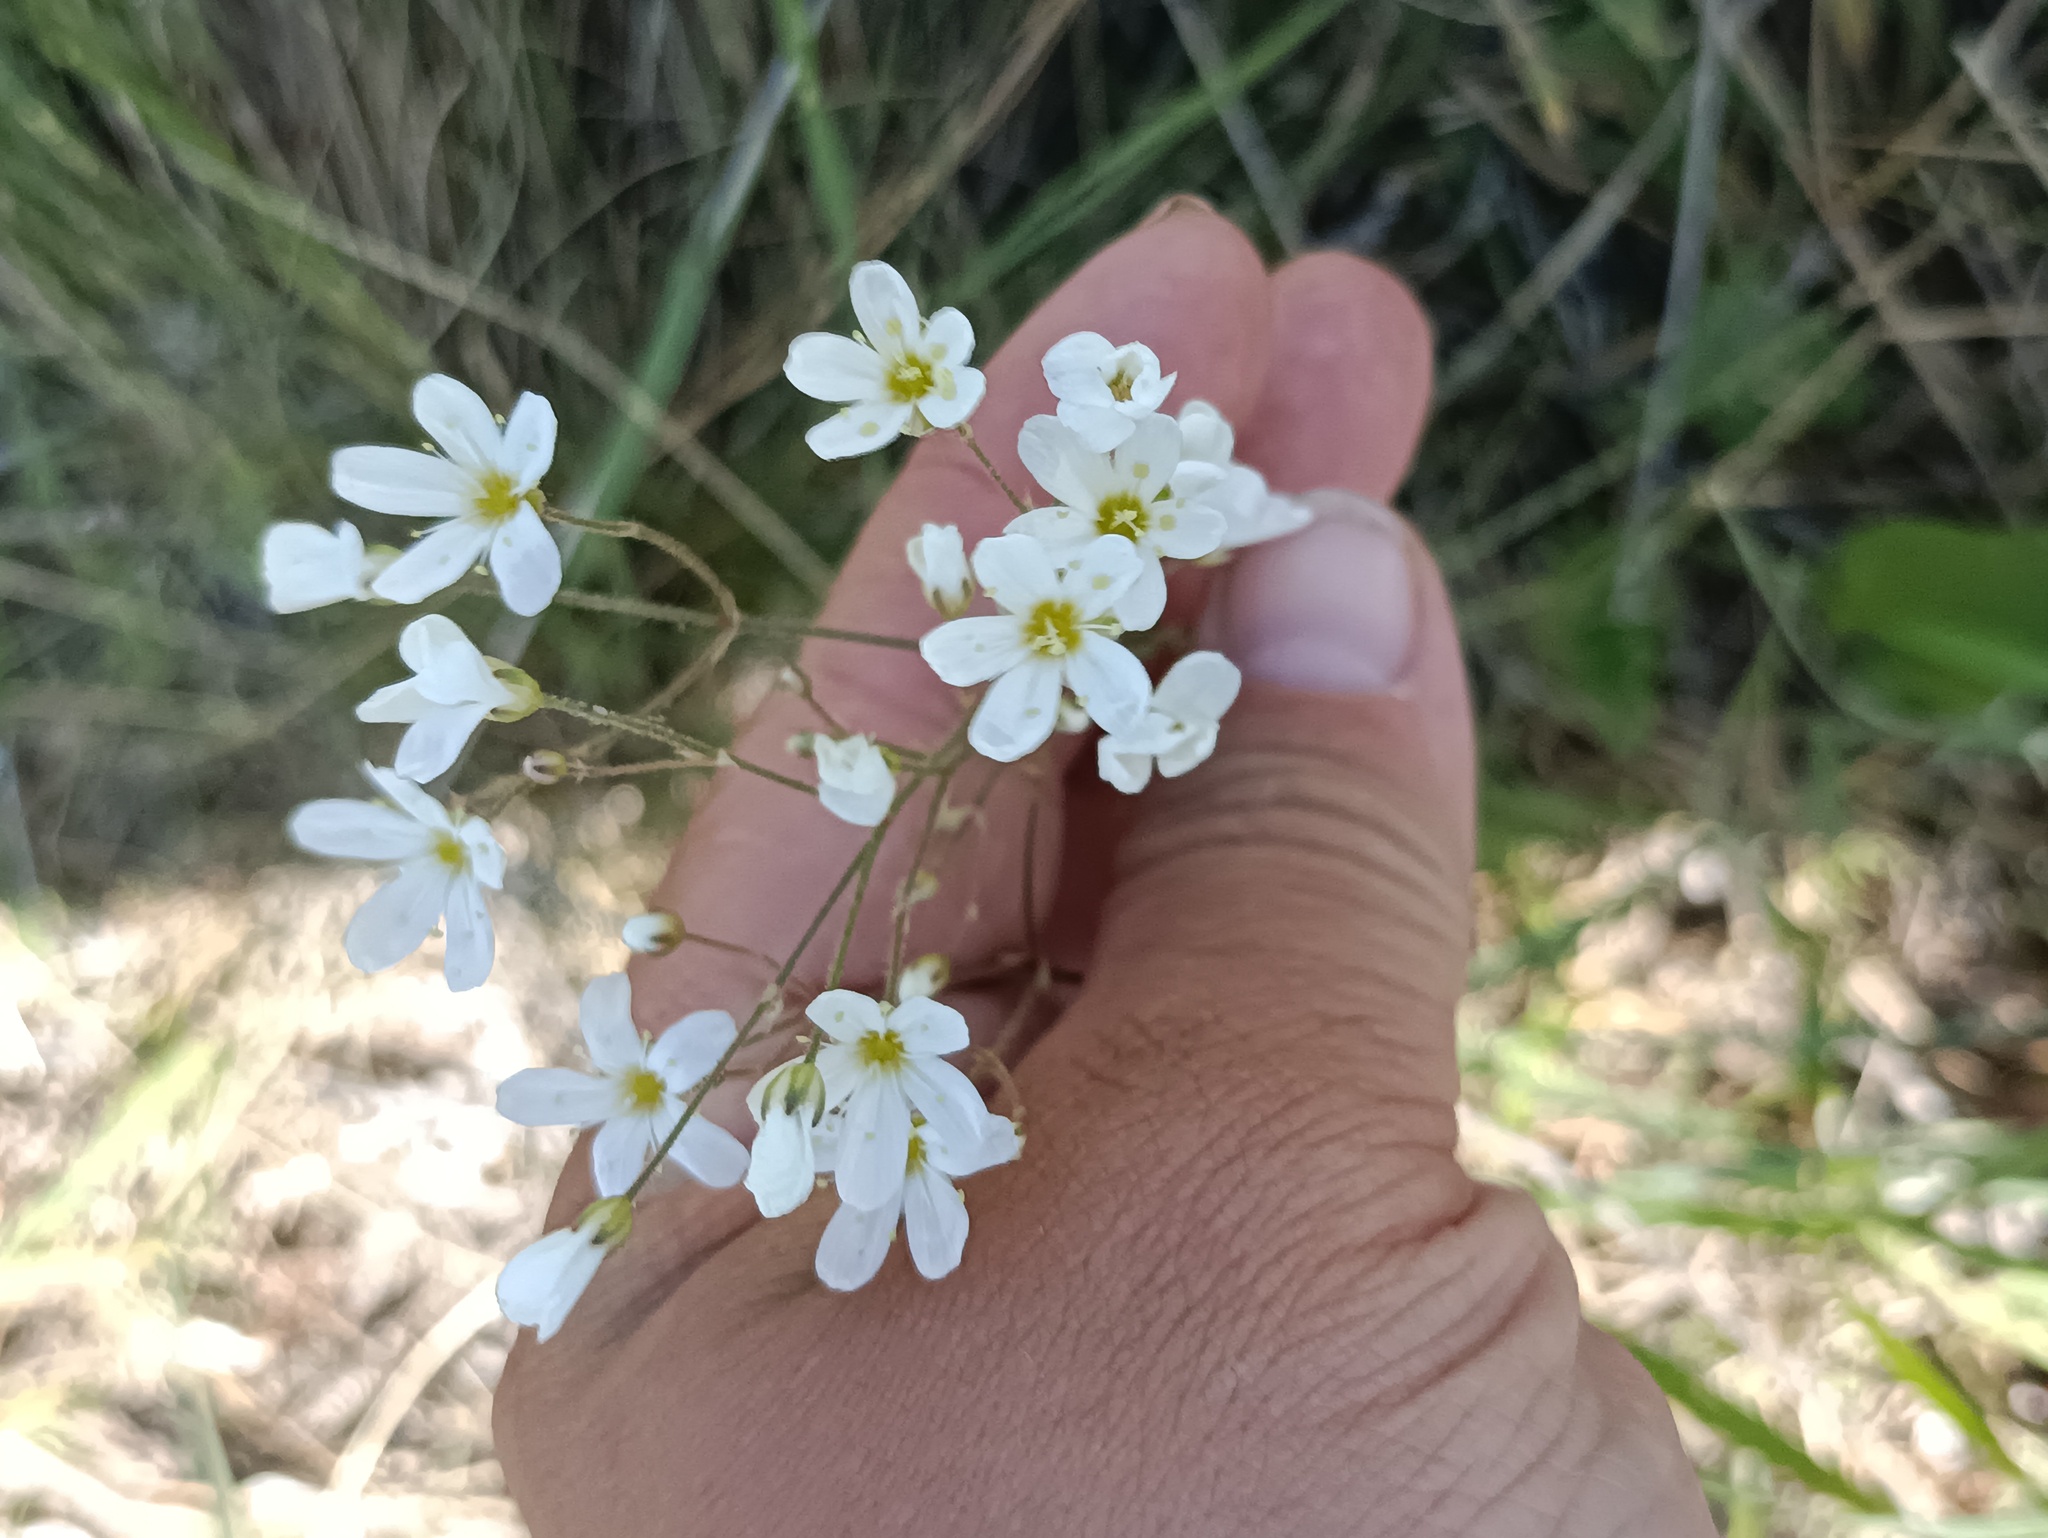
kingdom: Plantae
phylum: Tracheophyta
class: Magnoliopsida
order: Caryophyllales
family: Caryophyllaceae
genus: Eremogone
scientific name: Eremogone biebersteinii
